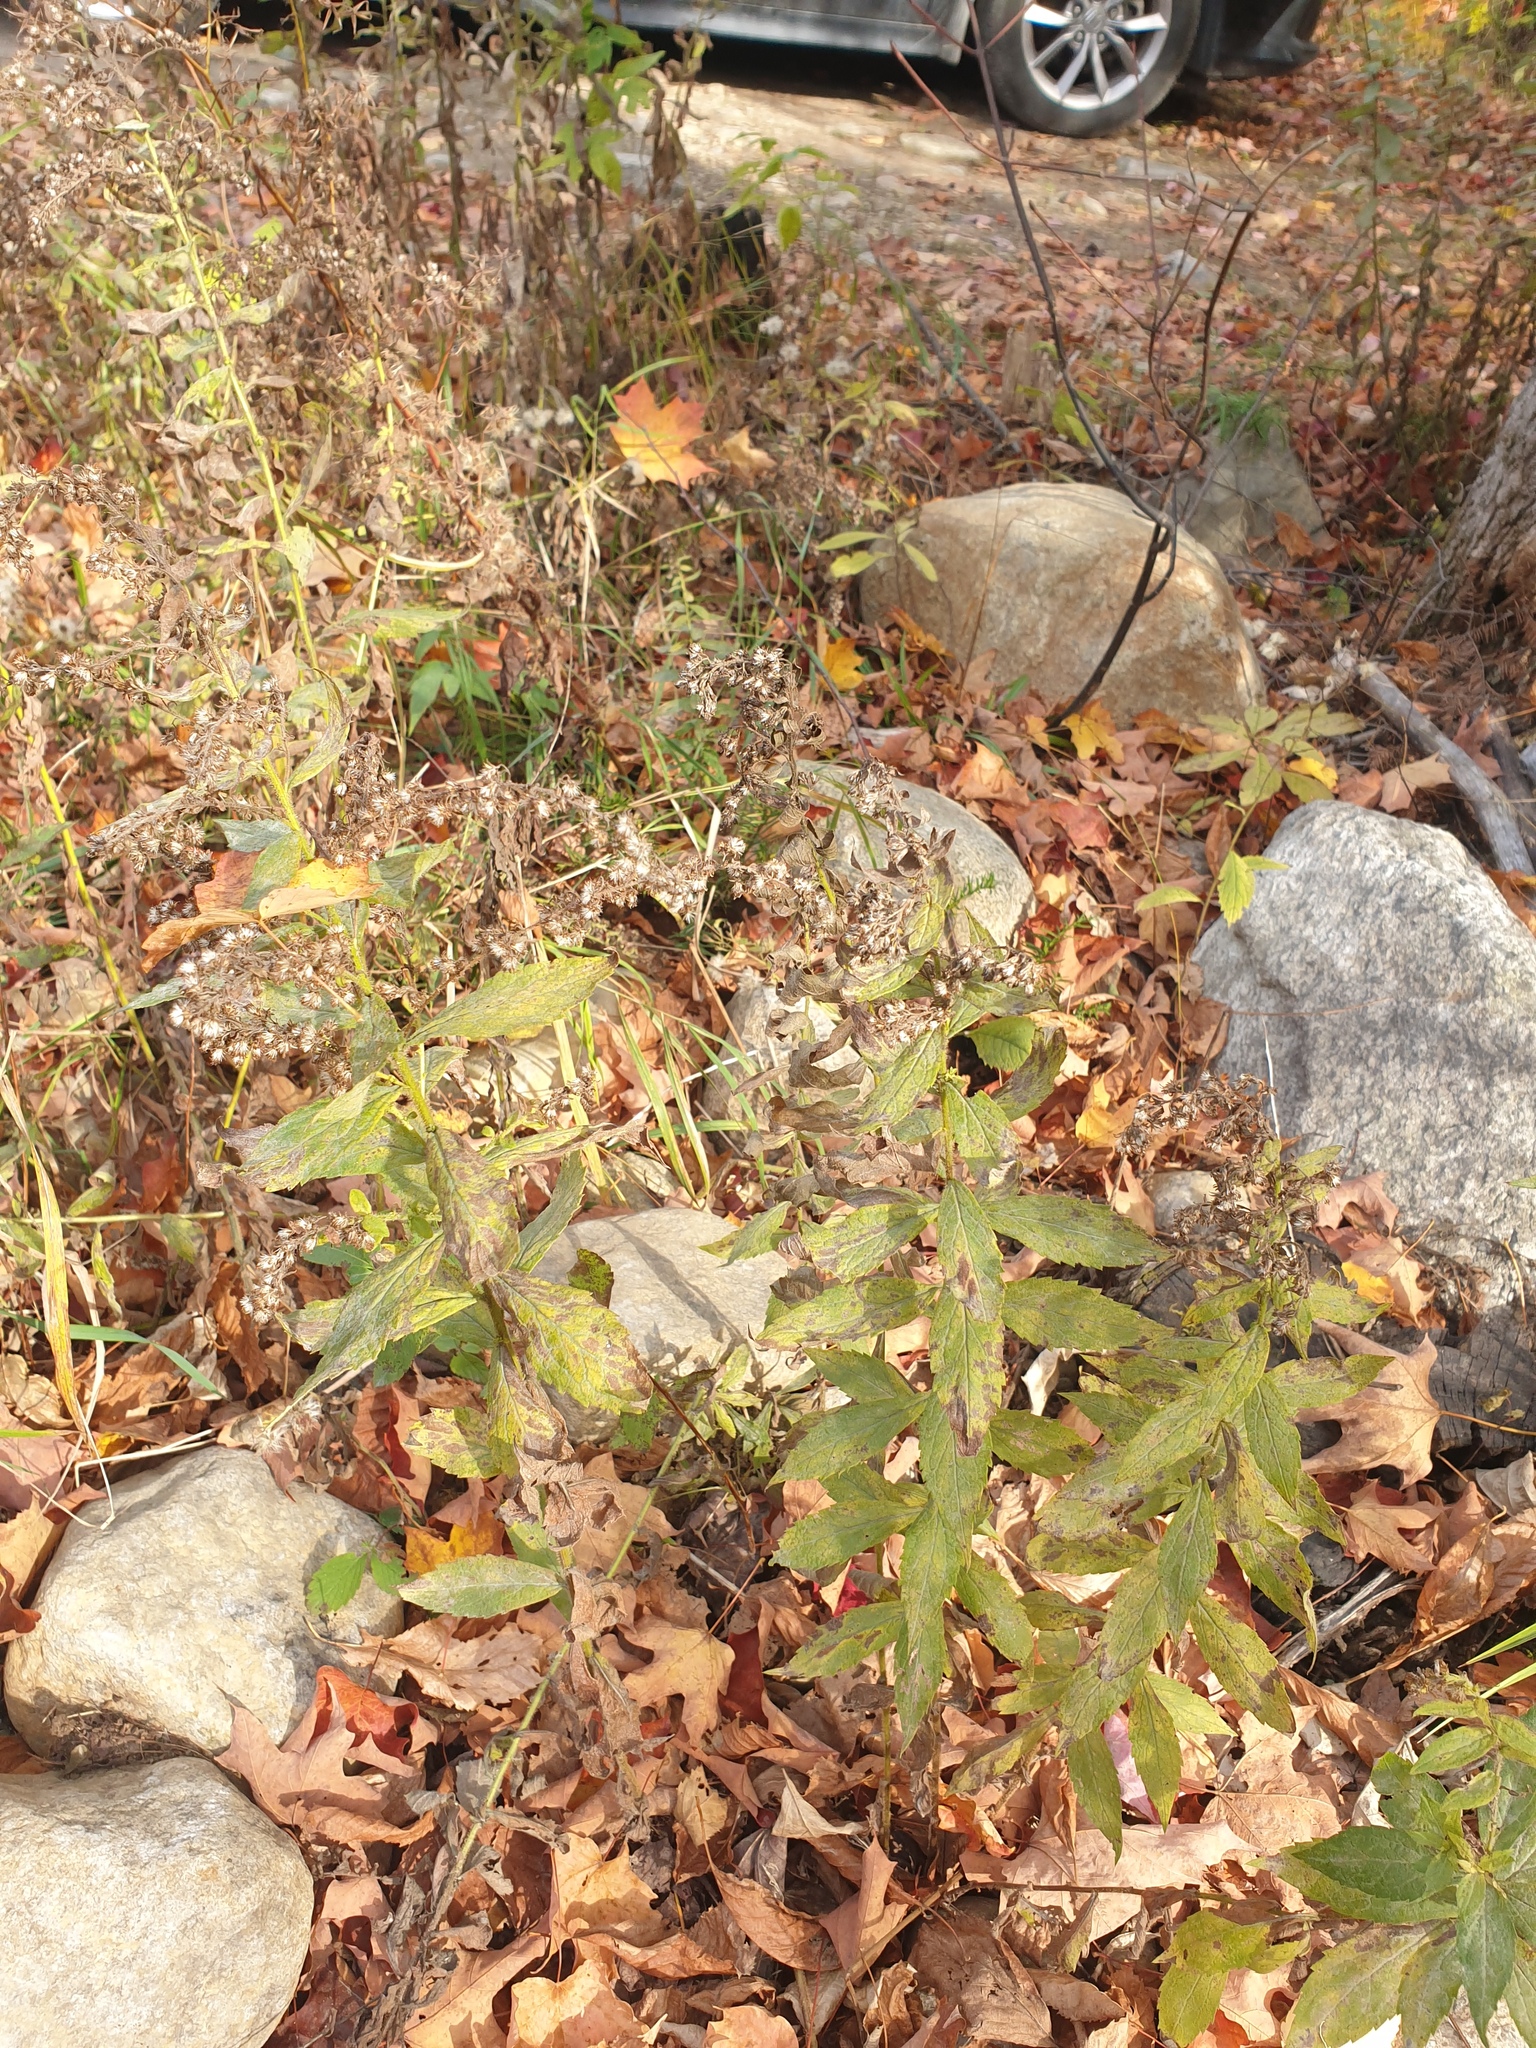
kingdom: Plantae
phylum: Tracheophyta
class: Magnoliopsida
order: Asterales
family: Asteraceae
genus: Solidago
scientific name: Solidago rugosa
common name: Rough-stemmed goldenrod
